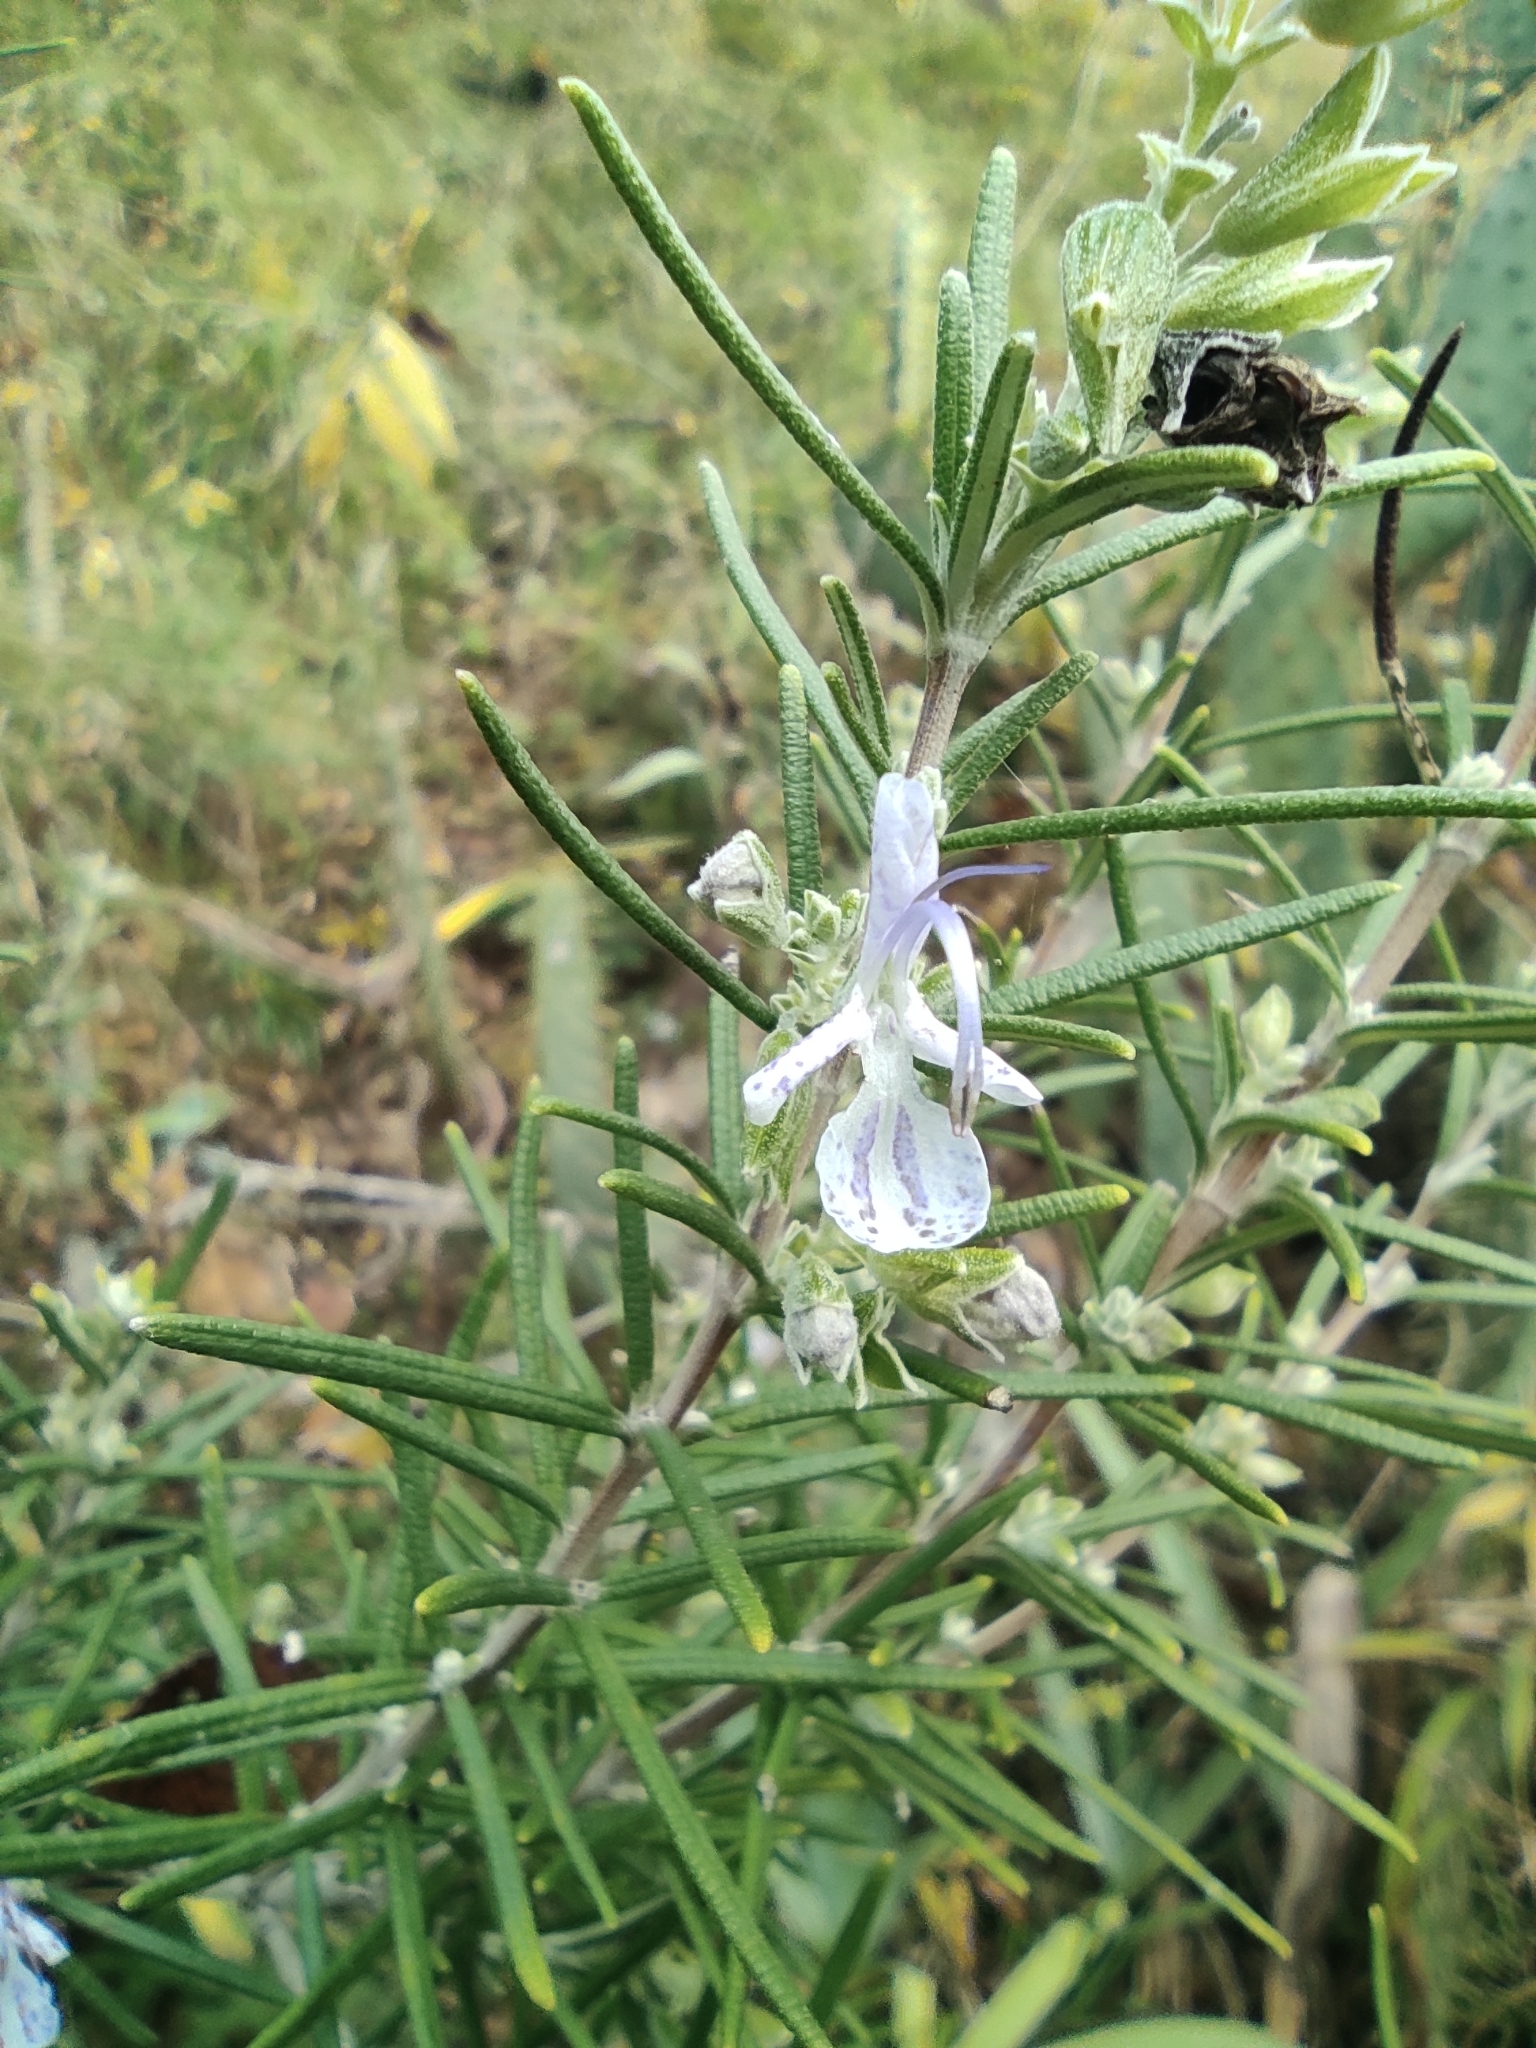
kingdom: Plantae
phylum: Tracheophyta
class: Magnoliopsida
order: Lamiales
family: Lamiaceae
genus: Salvia
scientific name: Salvia rosmarinus
